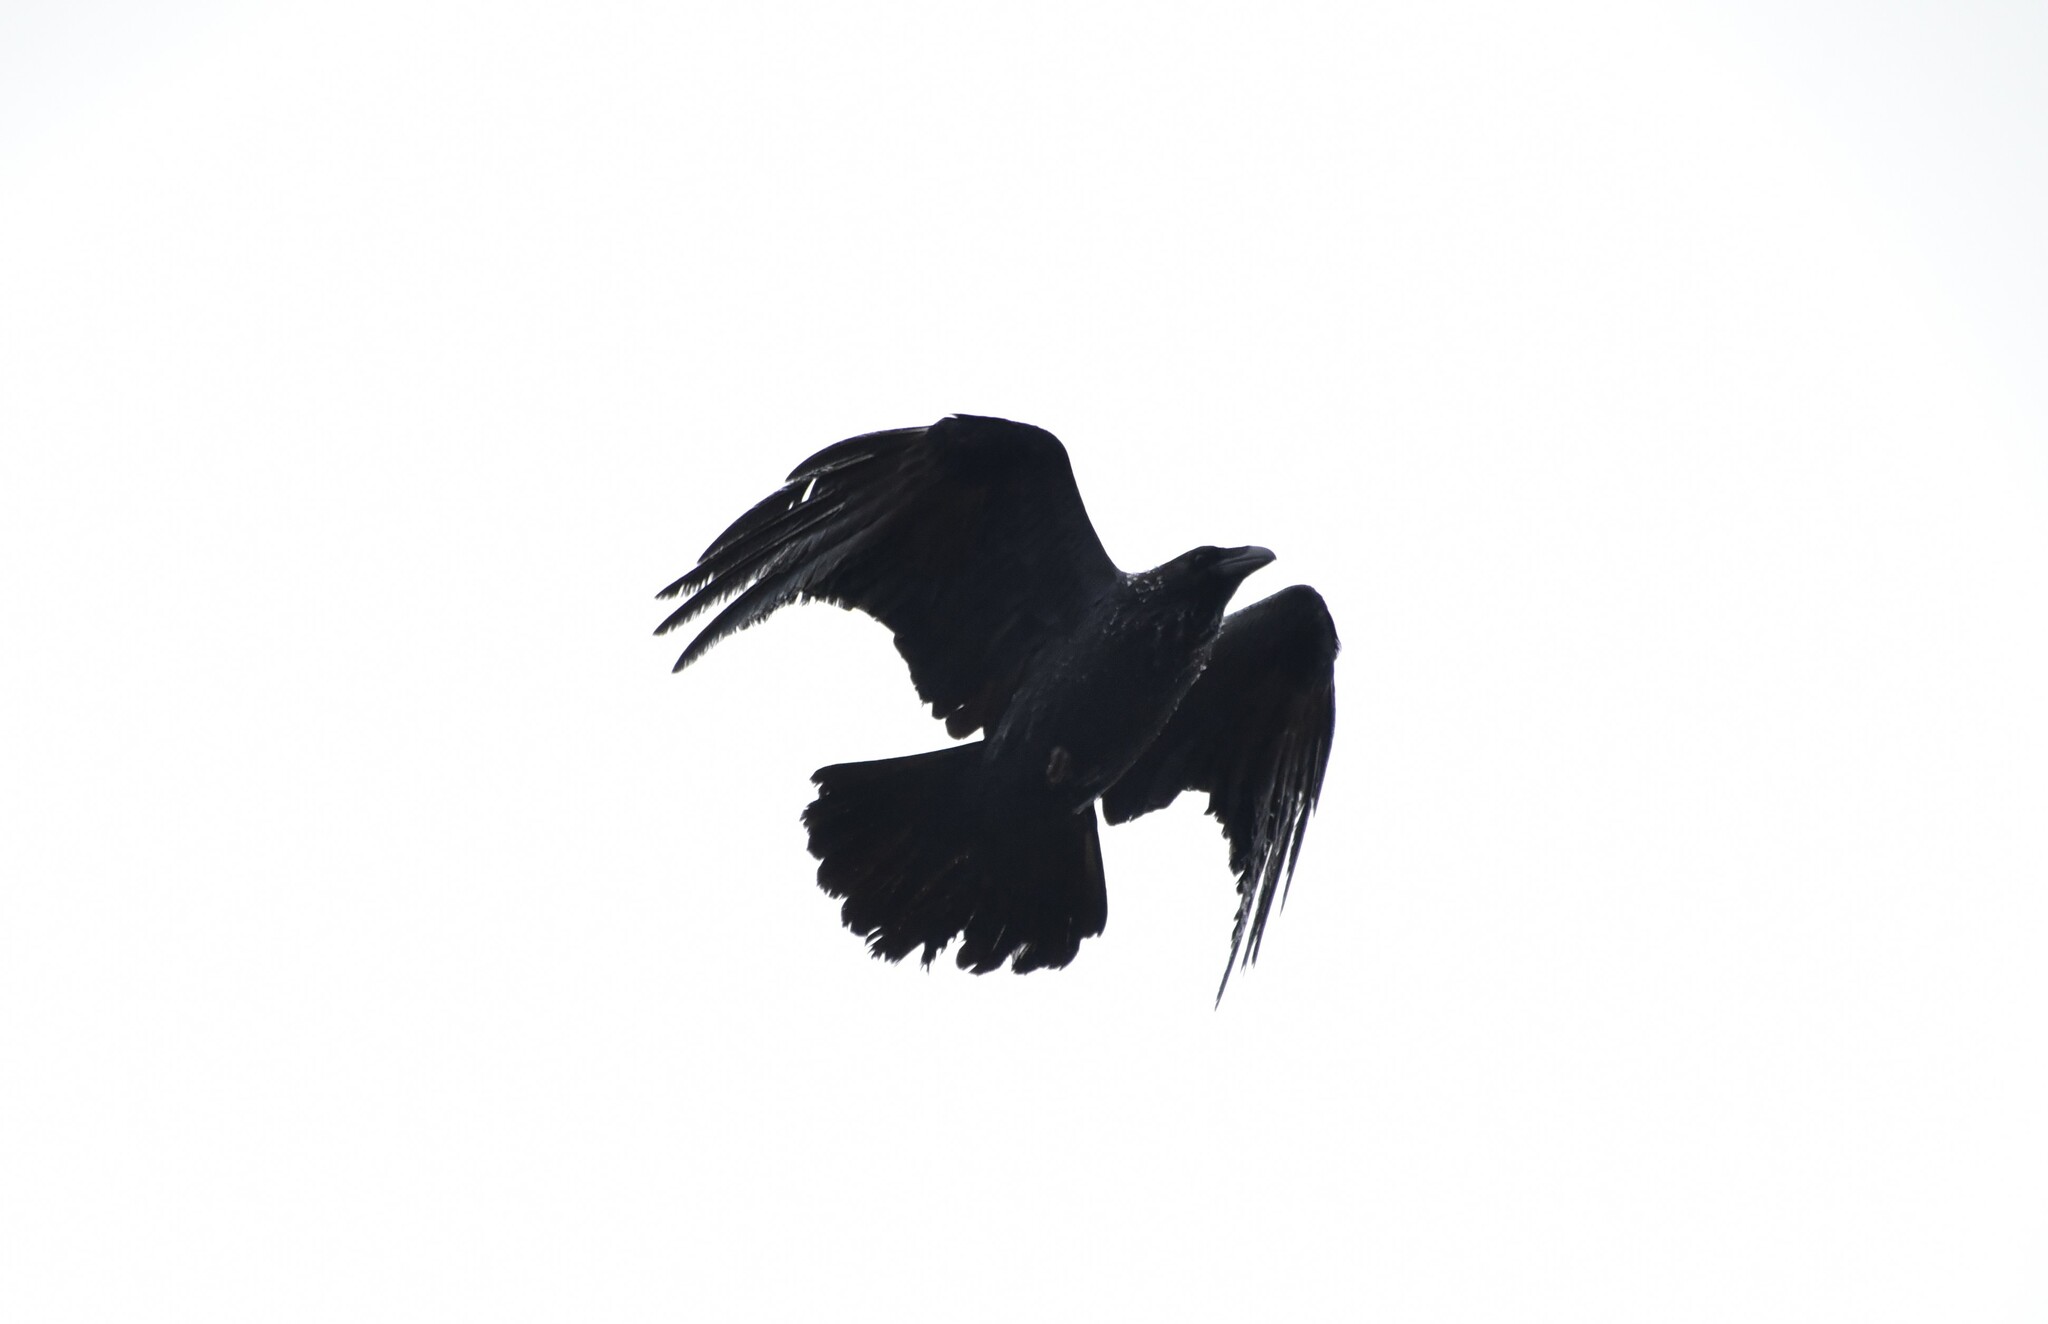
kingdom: Animalia
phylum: Chordata
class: Aves
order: Passeriformes
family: Corvidae
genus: Corvus
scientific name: Corvus corax
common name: Common raven
